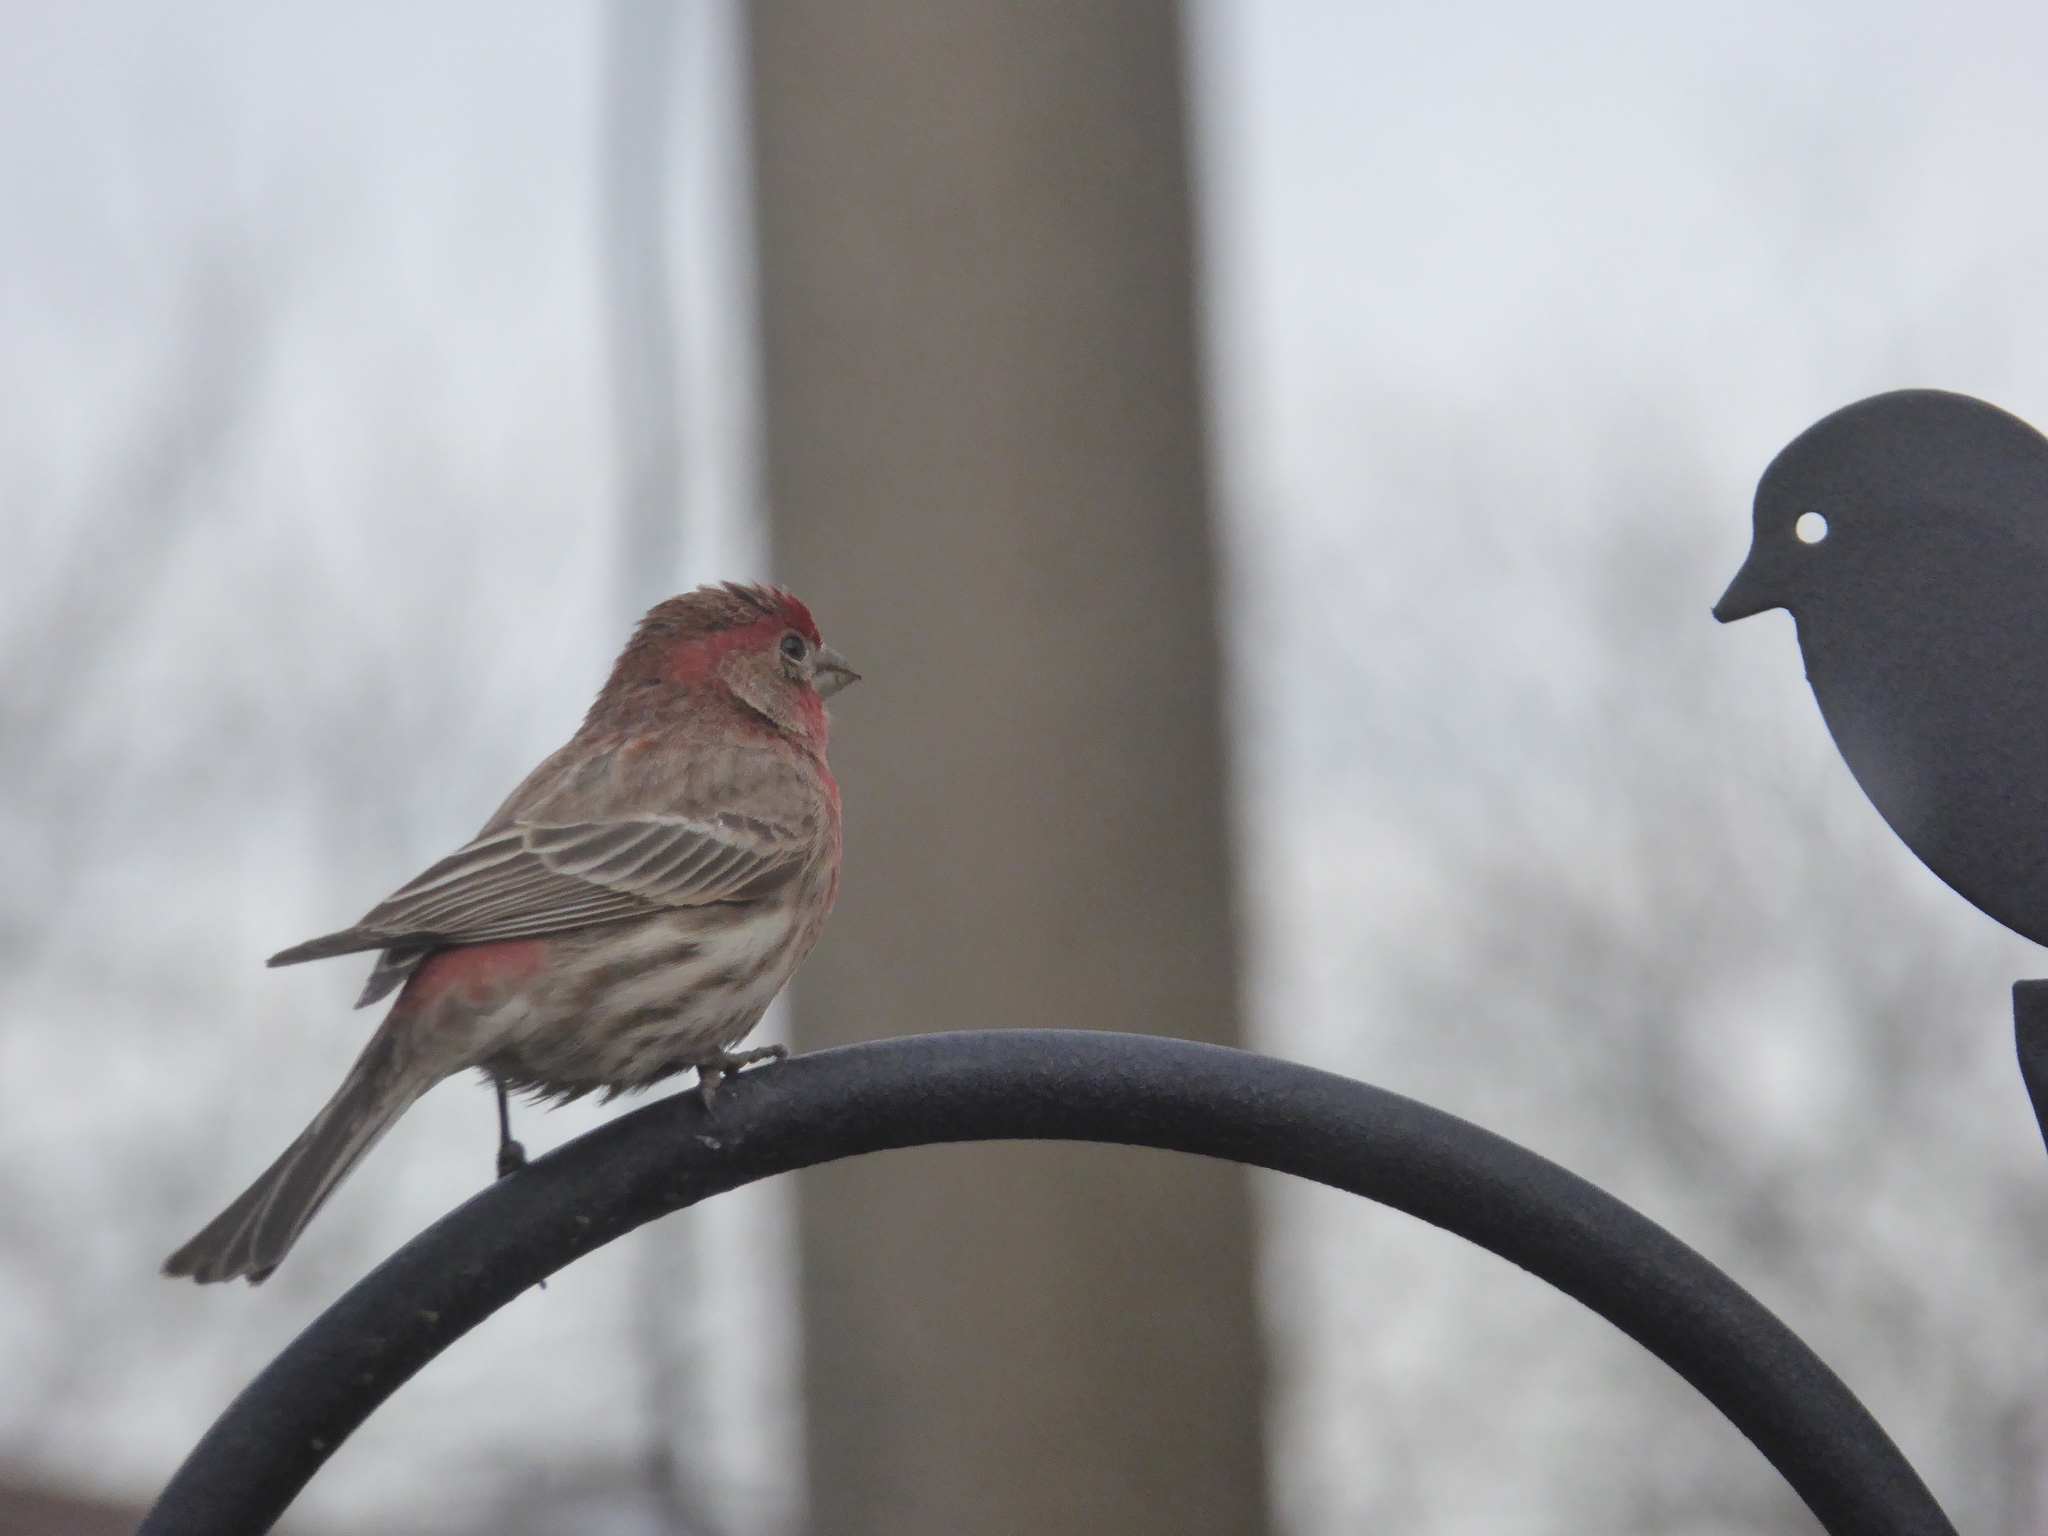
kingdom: Animalia
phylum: Chordata
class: Aves
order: Passeriformes
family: Fringillidae
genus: Haemorhous
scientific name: Haemorhous mexicanus
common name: House finch
